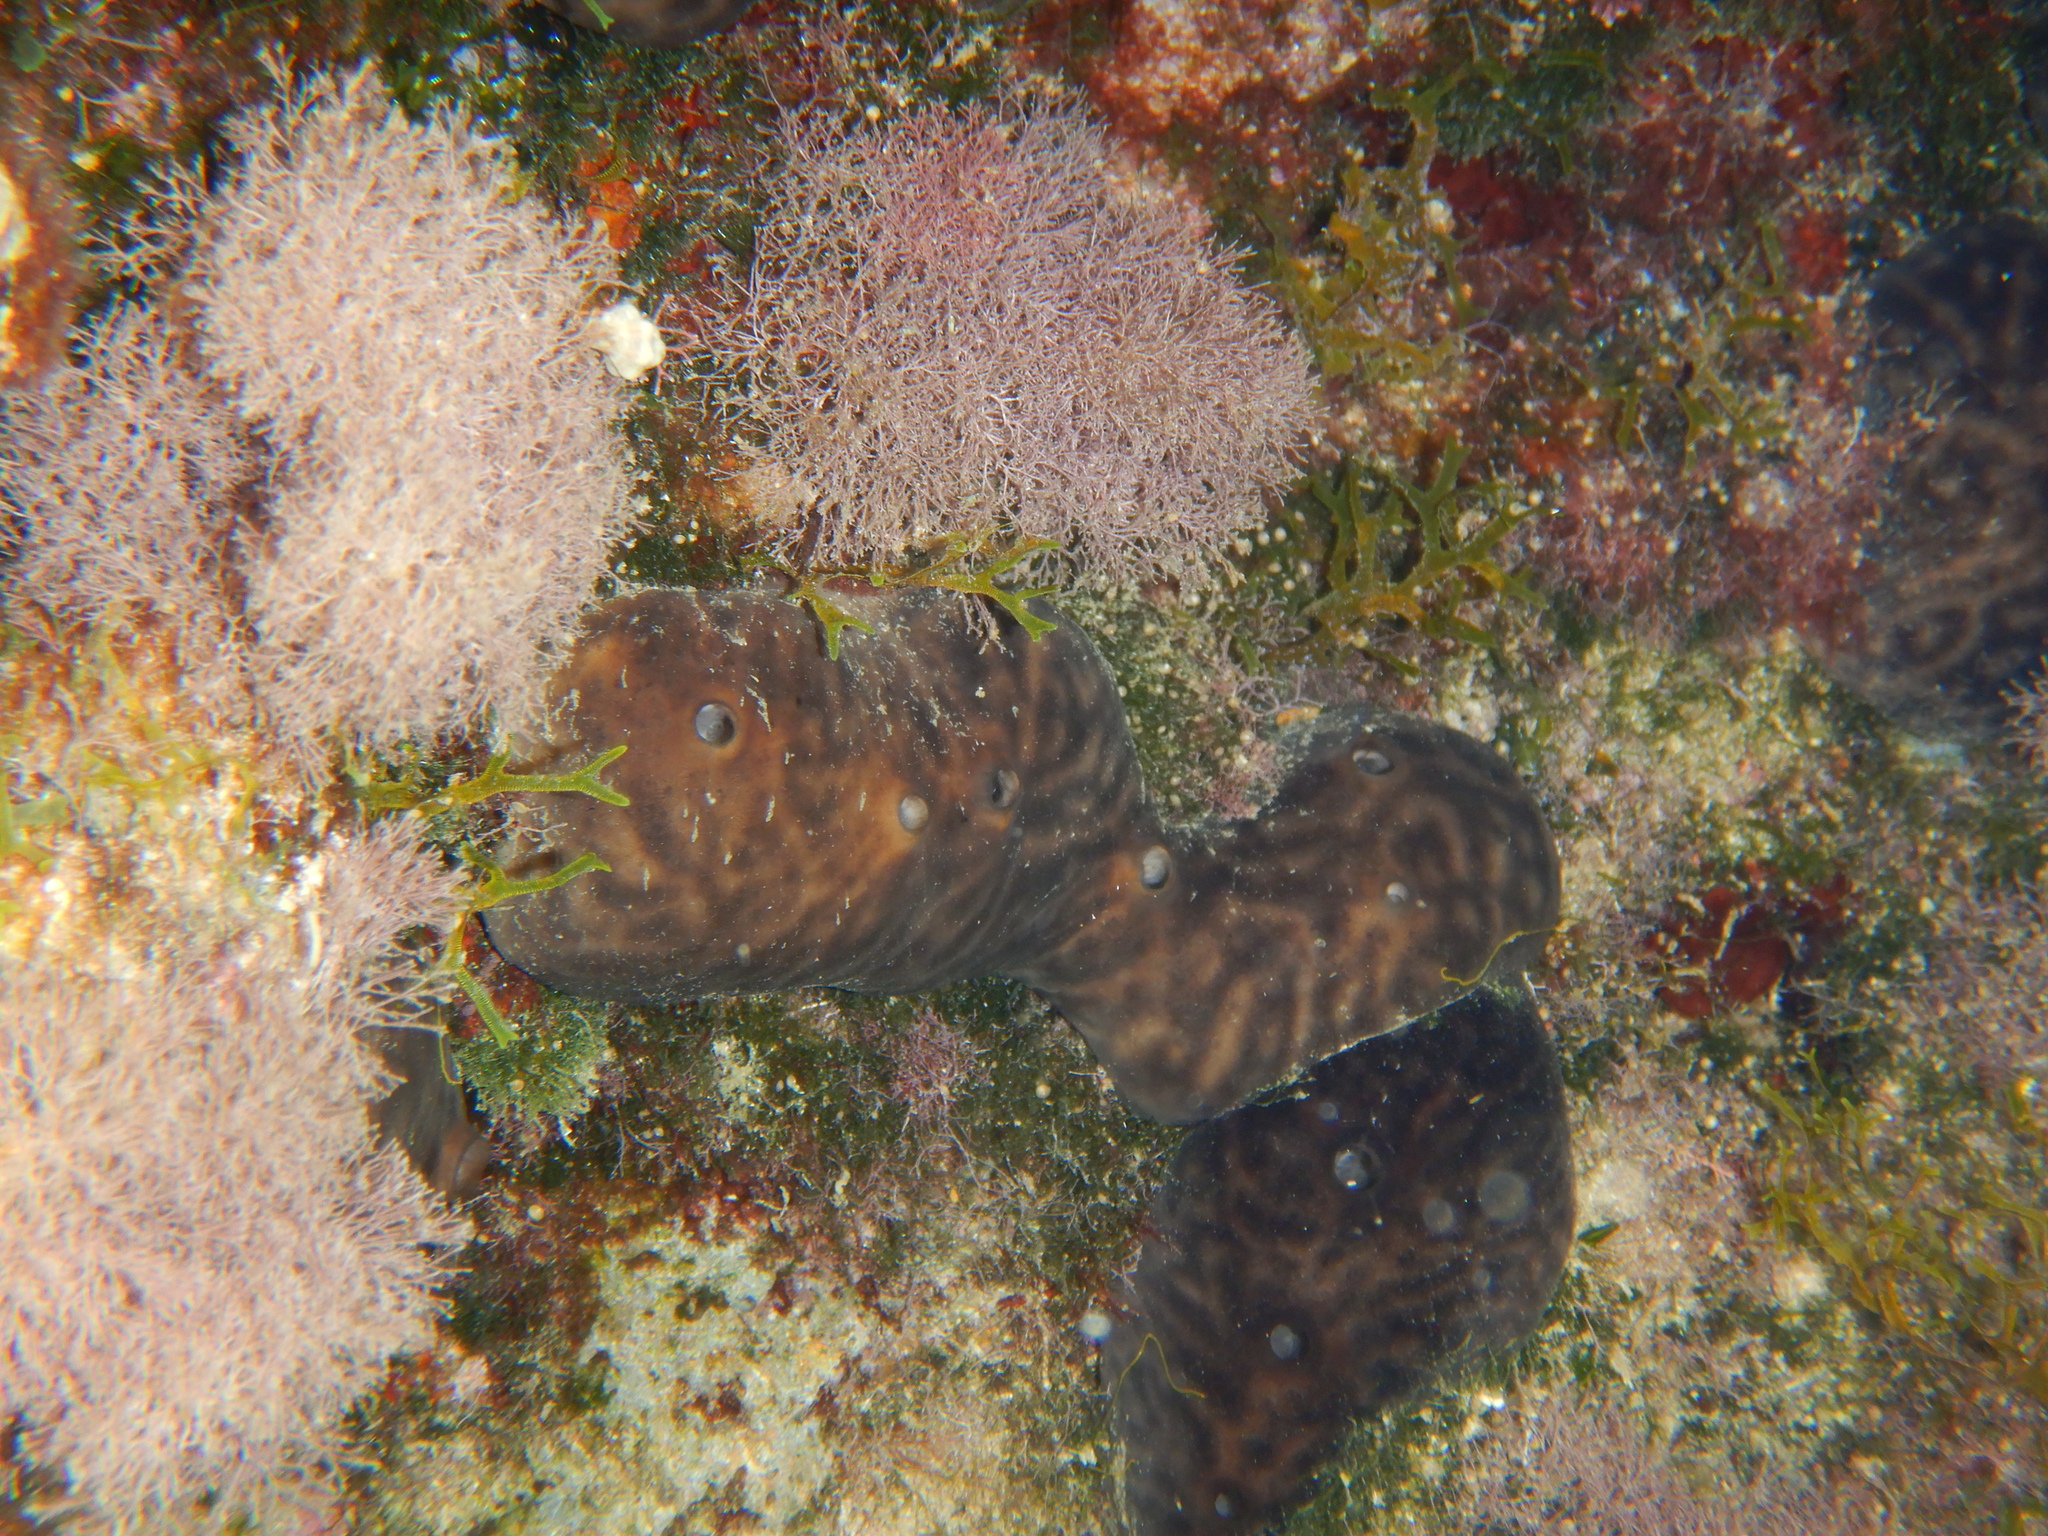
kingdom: Animalia
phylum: Porifera
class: Demospongiae
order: Chondrosiida
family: Chondrosiidae
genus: Chondrosia
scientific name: Chondrosia reniformis
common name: Chicken liver sponge
